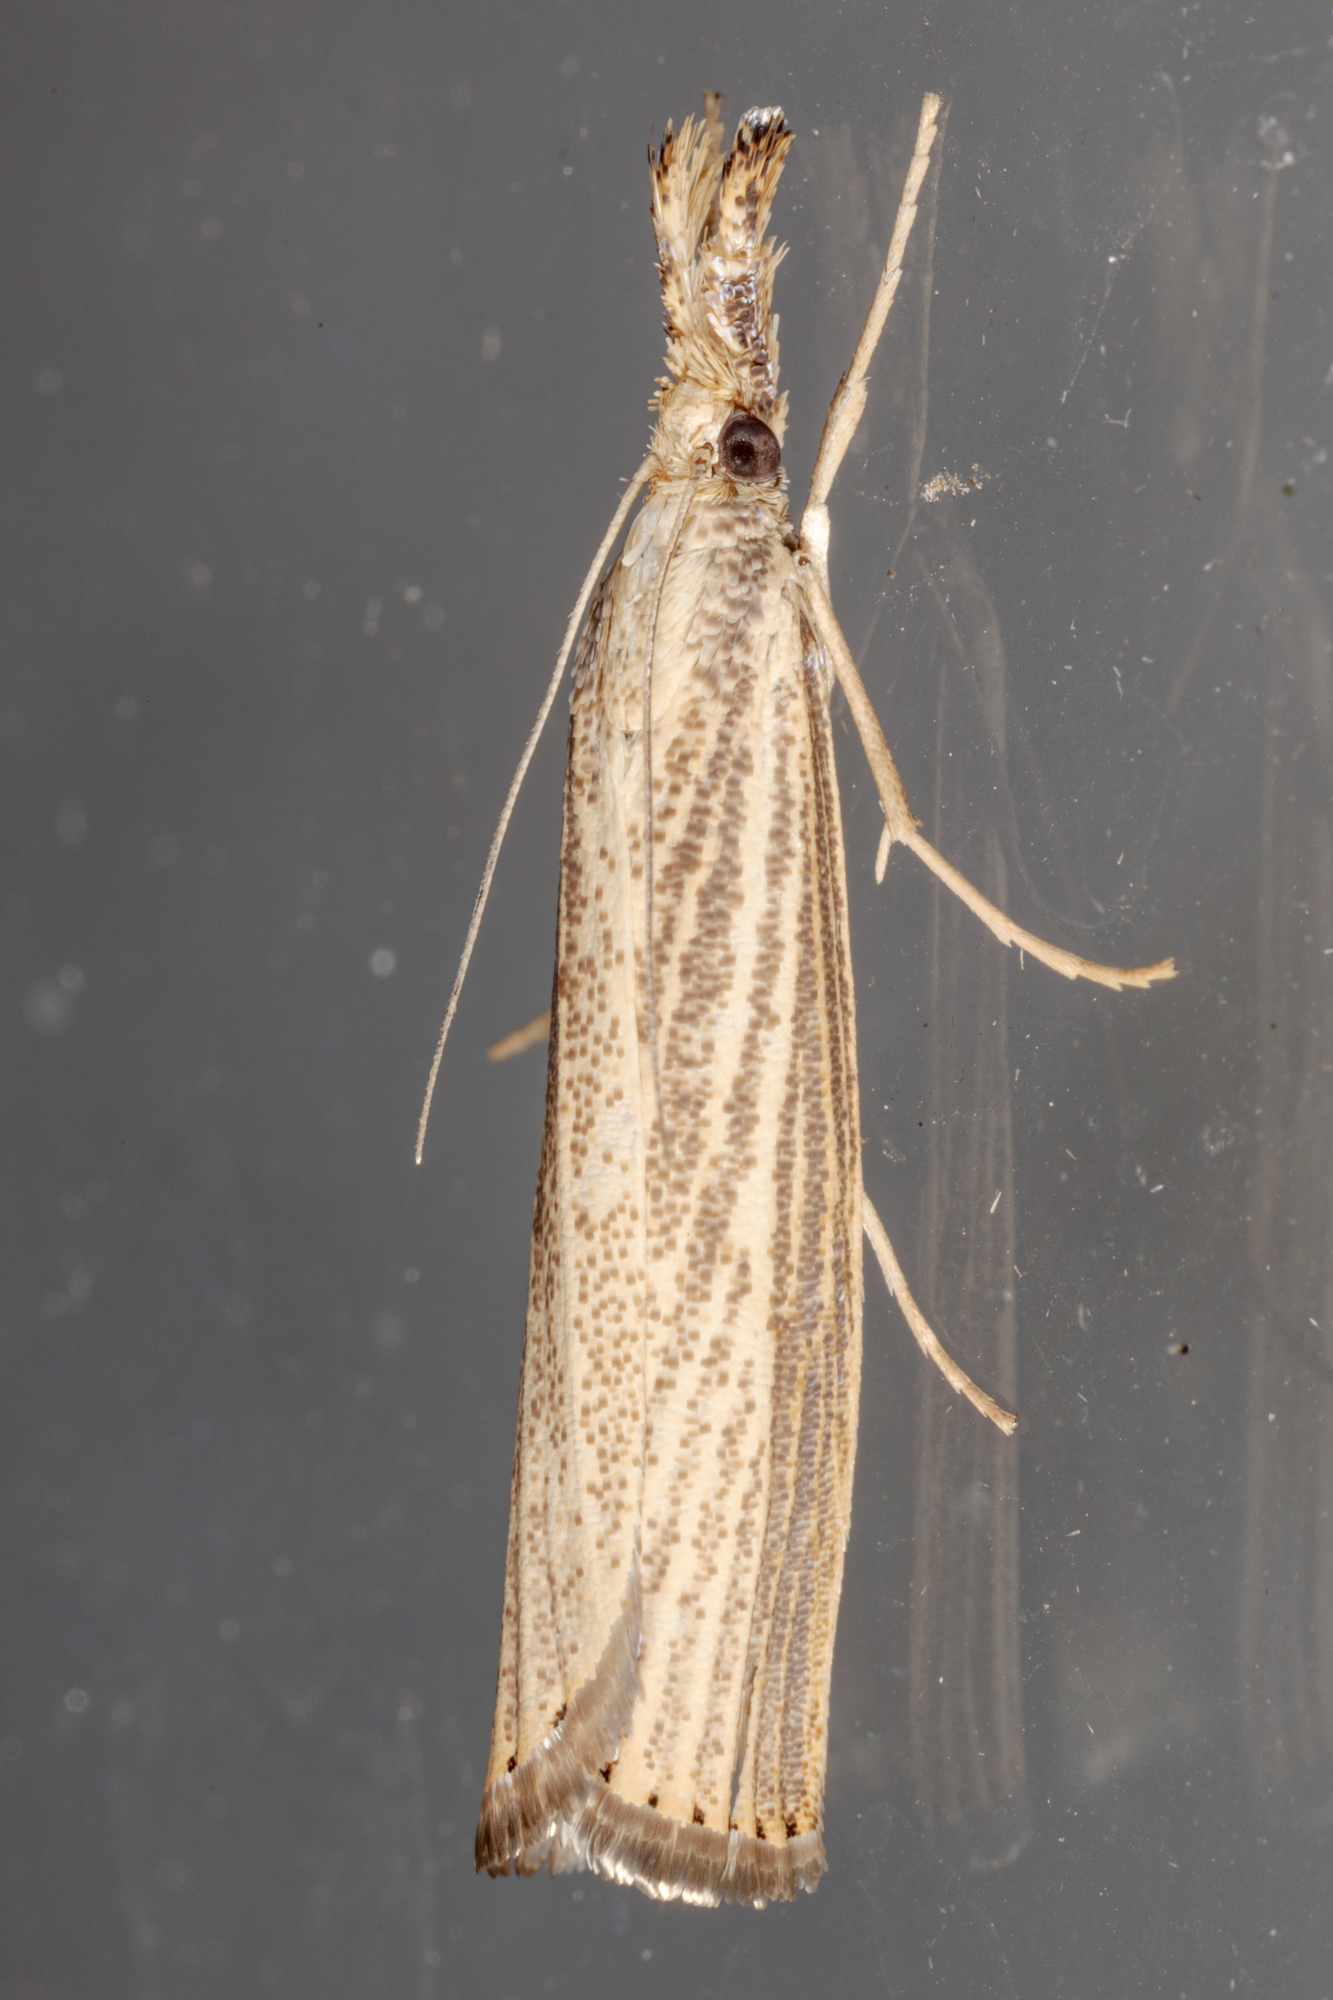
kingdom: Animalia
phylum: Arthropoda
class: Insecta
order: Lepidoptera
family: Crambidae
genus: Agriphila
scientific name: Agriphila vulgivagellus
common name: Vagabond crambus moth
